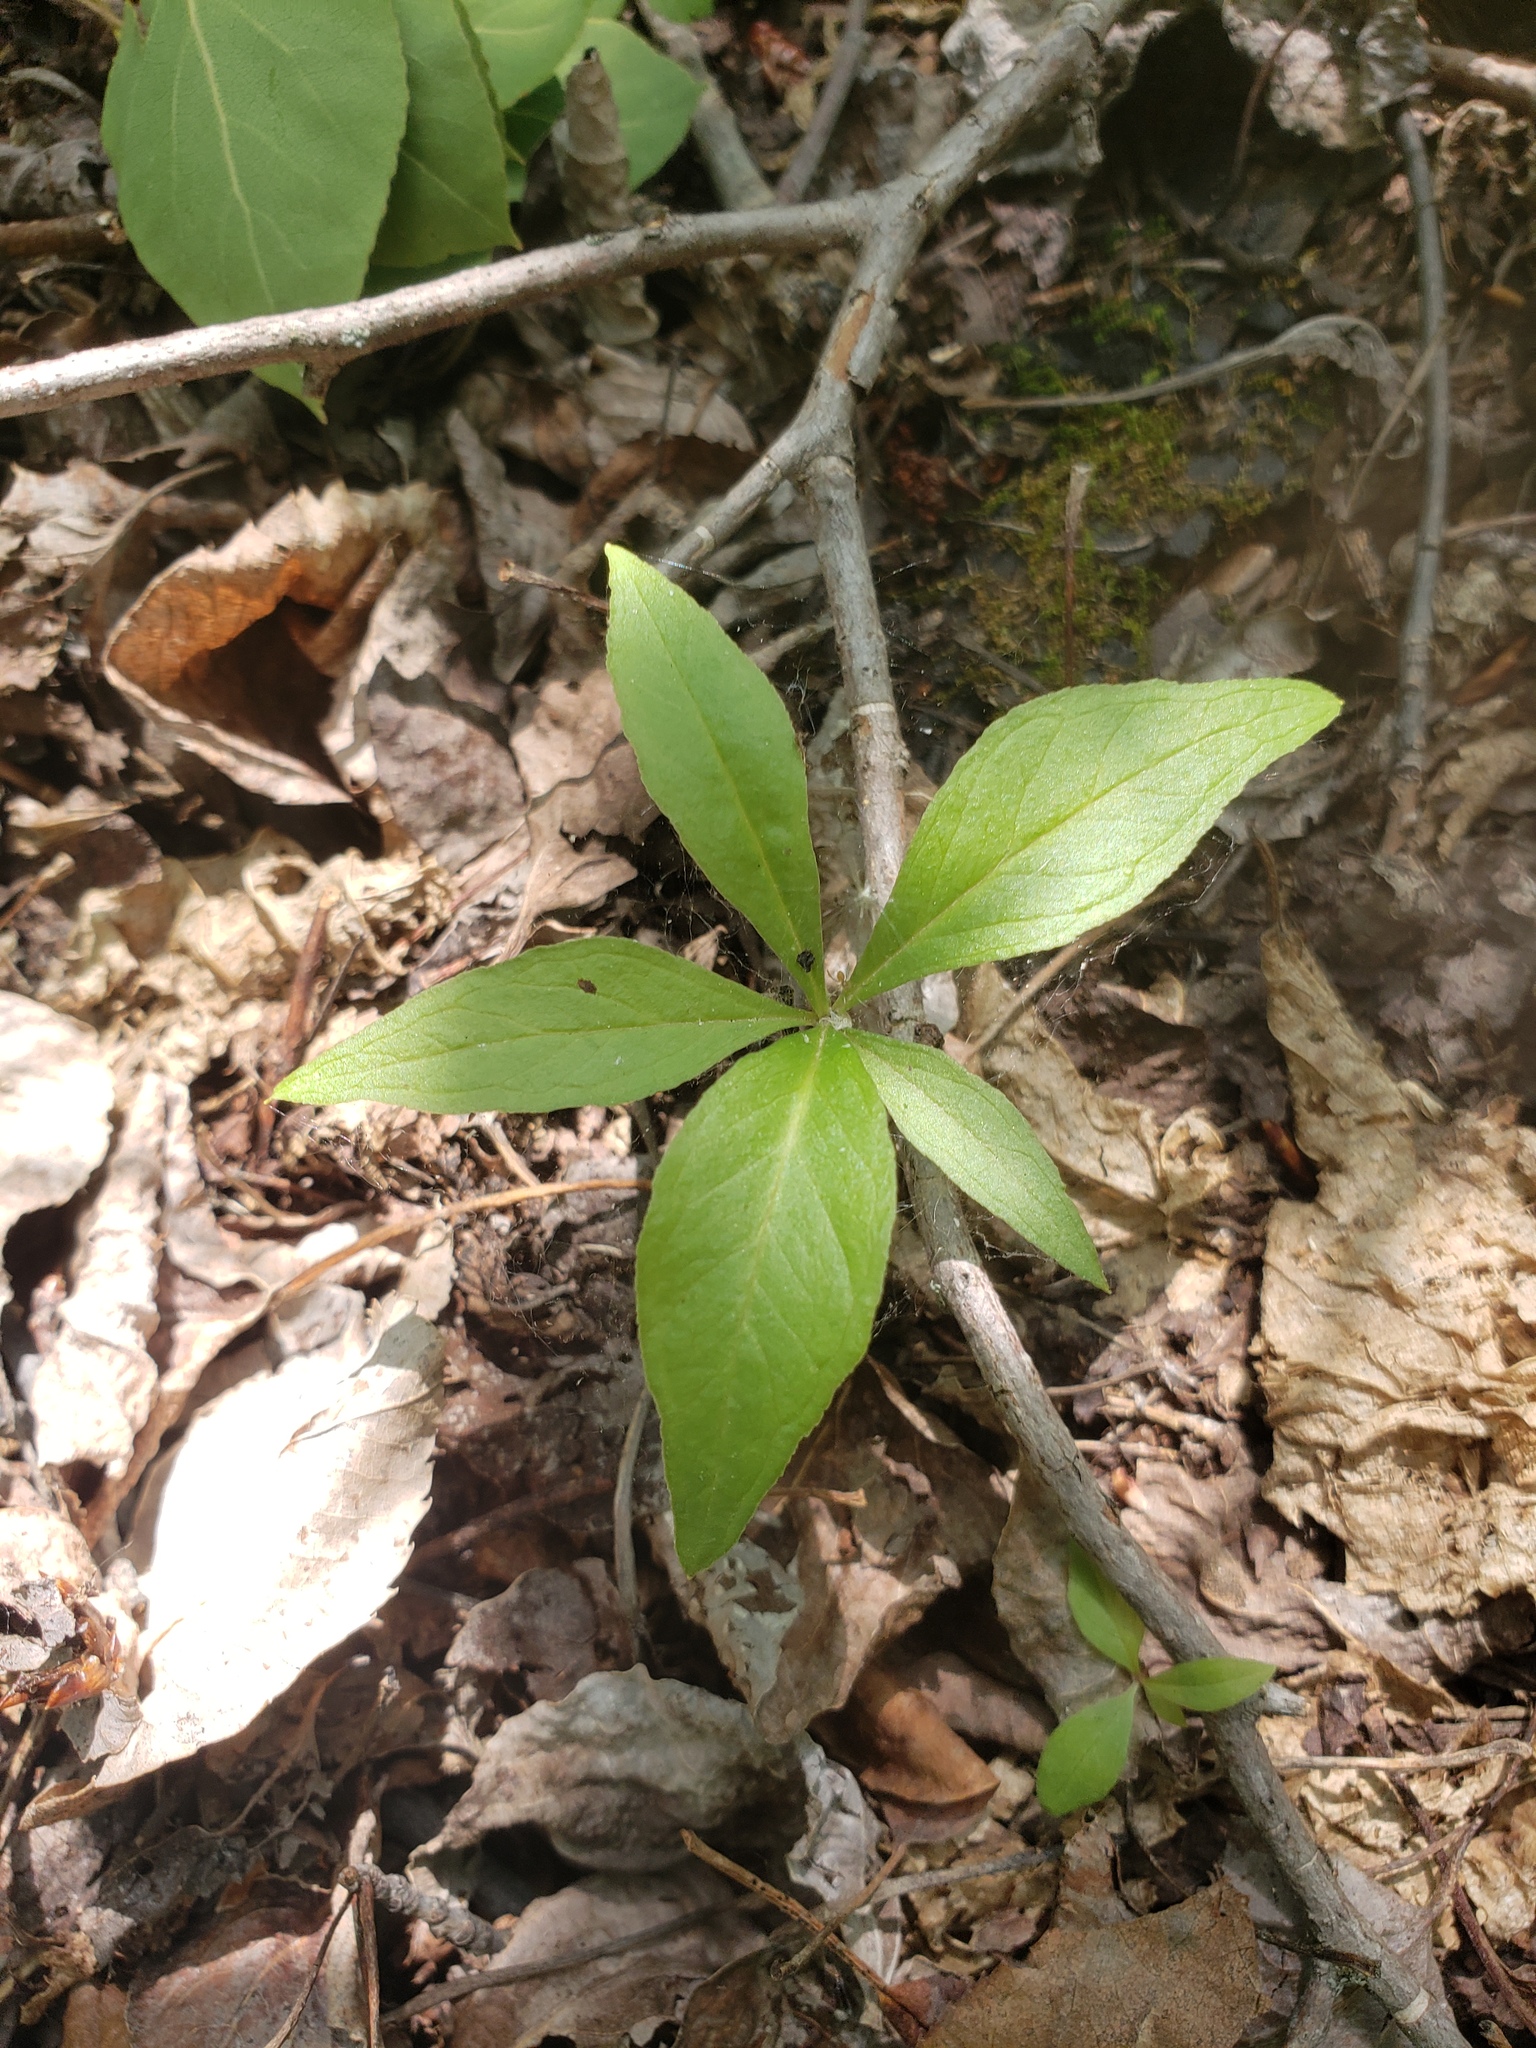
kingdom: Plantae
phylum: Tracheophyta
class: Magnoliopsida
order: Ericales
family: Primulaceae
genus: Lysimachia
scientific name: Lysimachia borealis
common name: American starflower
